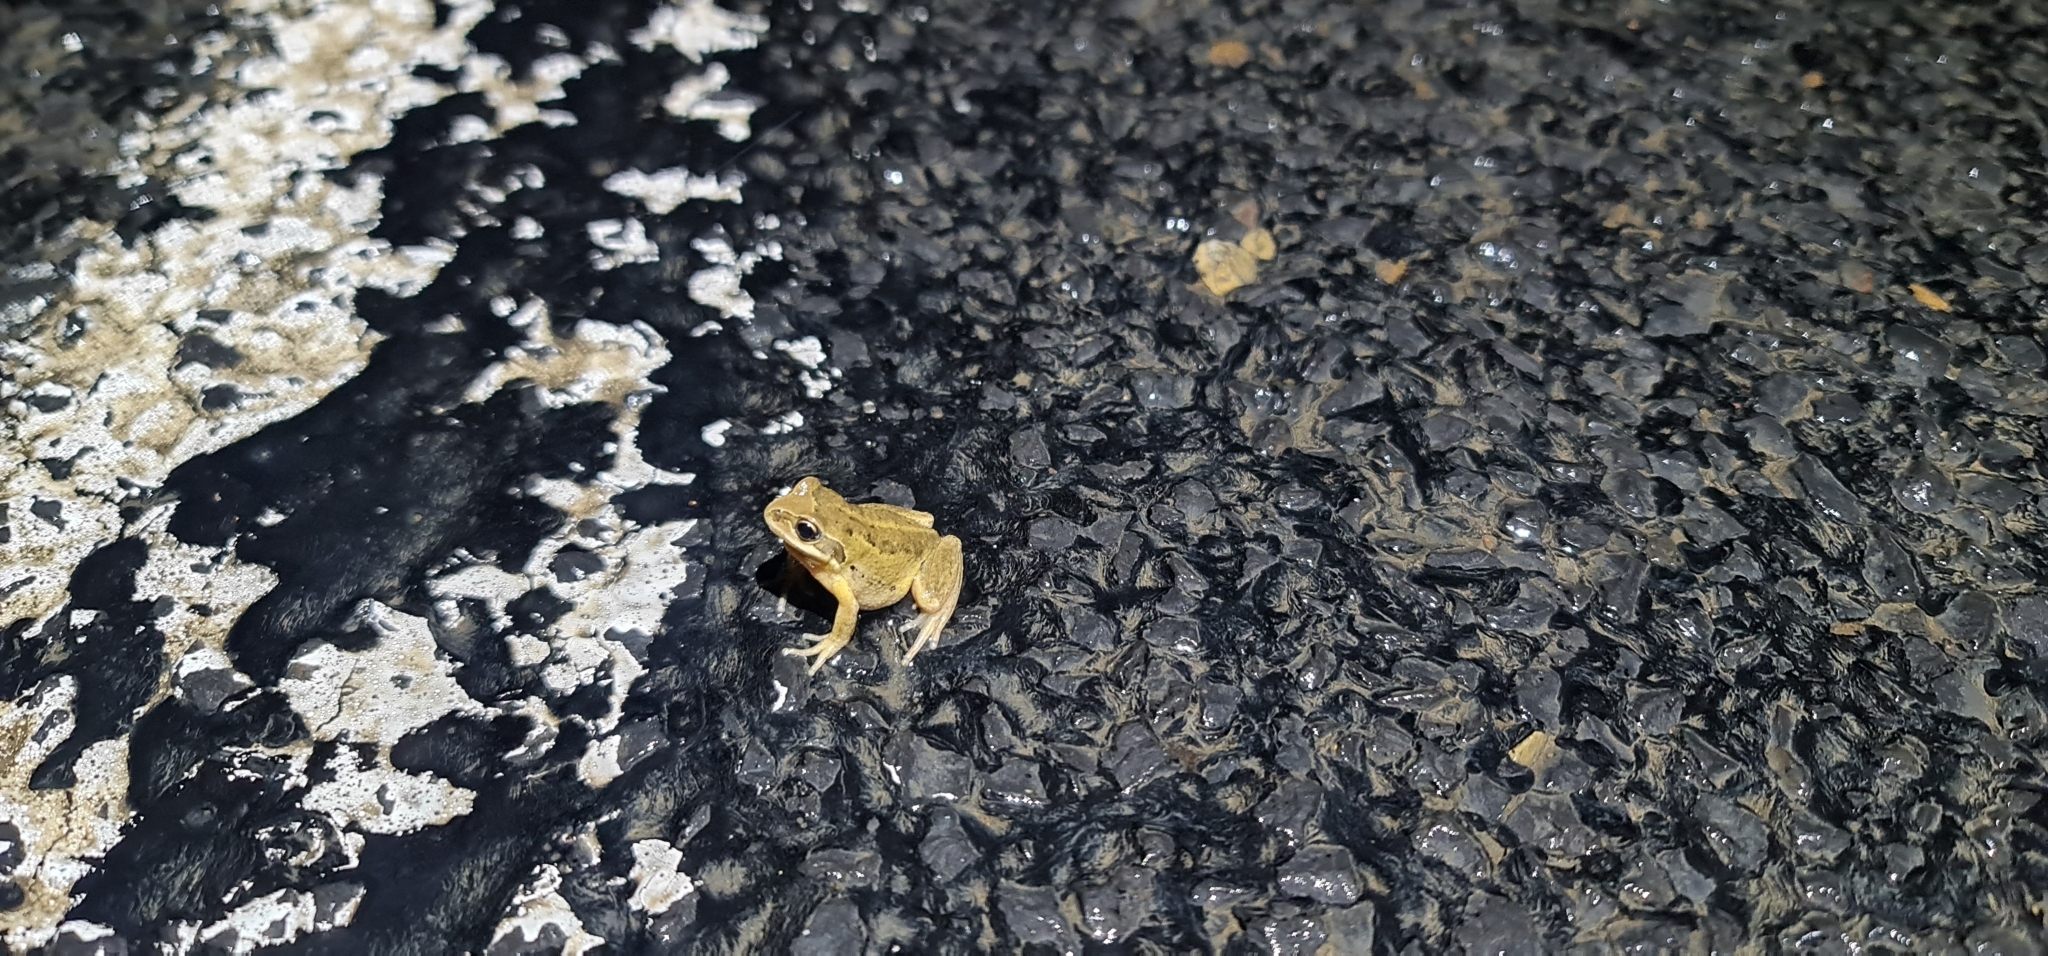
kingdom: Animalia
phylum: Chordata
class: Amphibia
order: Anura
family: Pelodryadidae
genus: Litoria
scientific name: Litoria verreauxii
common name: Alpine tree frog
